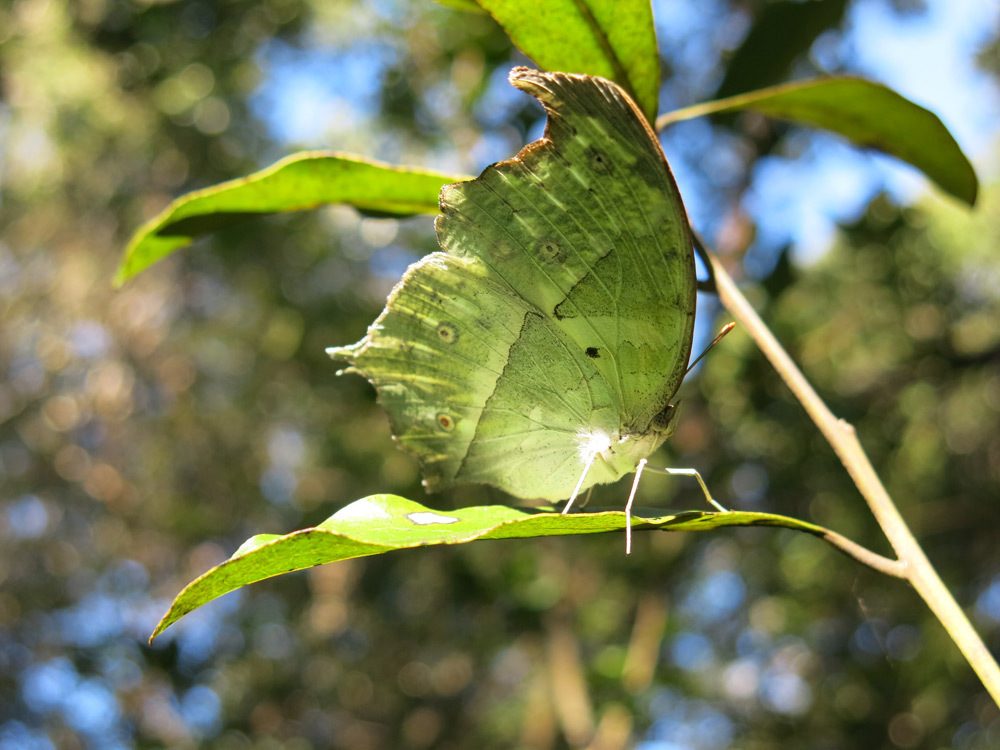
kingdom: Animalia
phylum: Arthropoda
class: Insecta
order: Lepidoptera
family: Nymphalidae
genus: Salamis
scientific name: Salamis Protogoniomorpha parhassus
